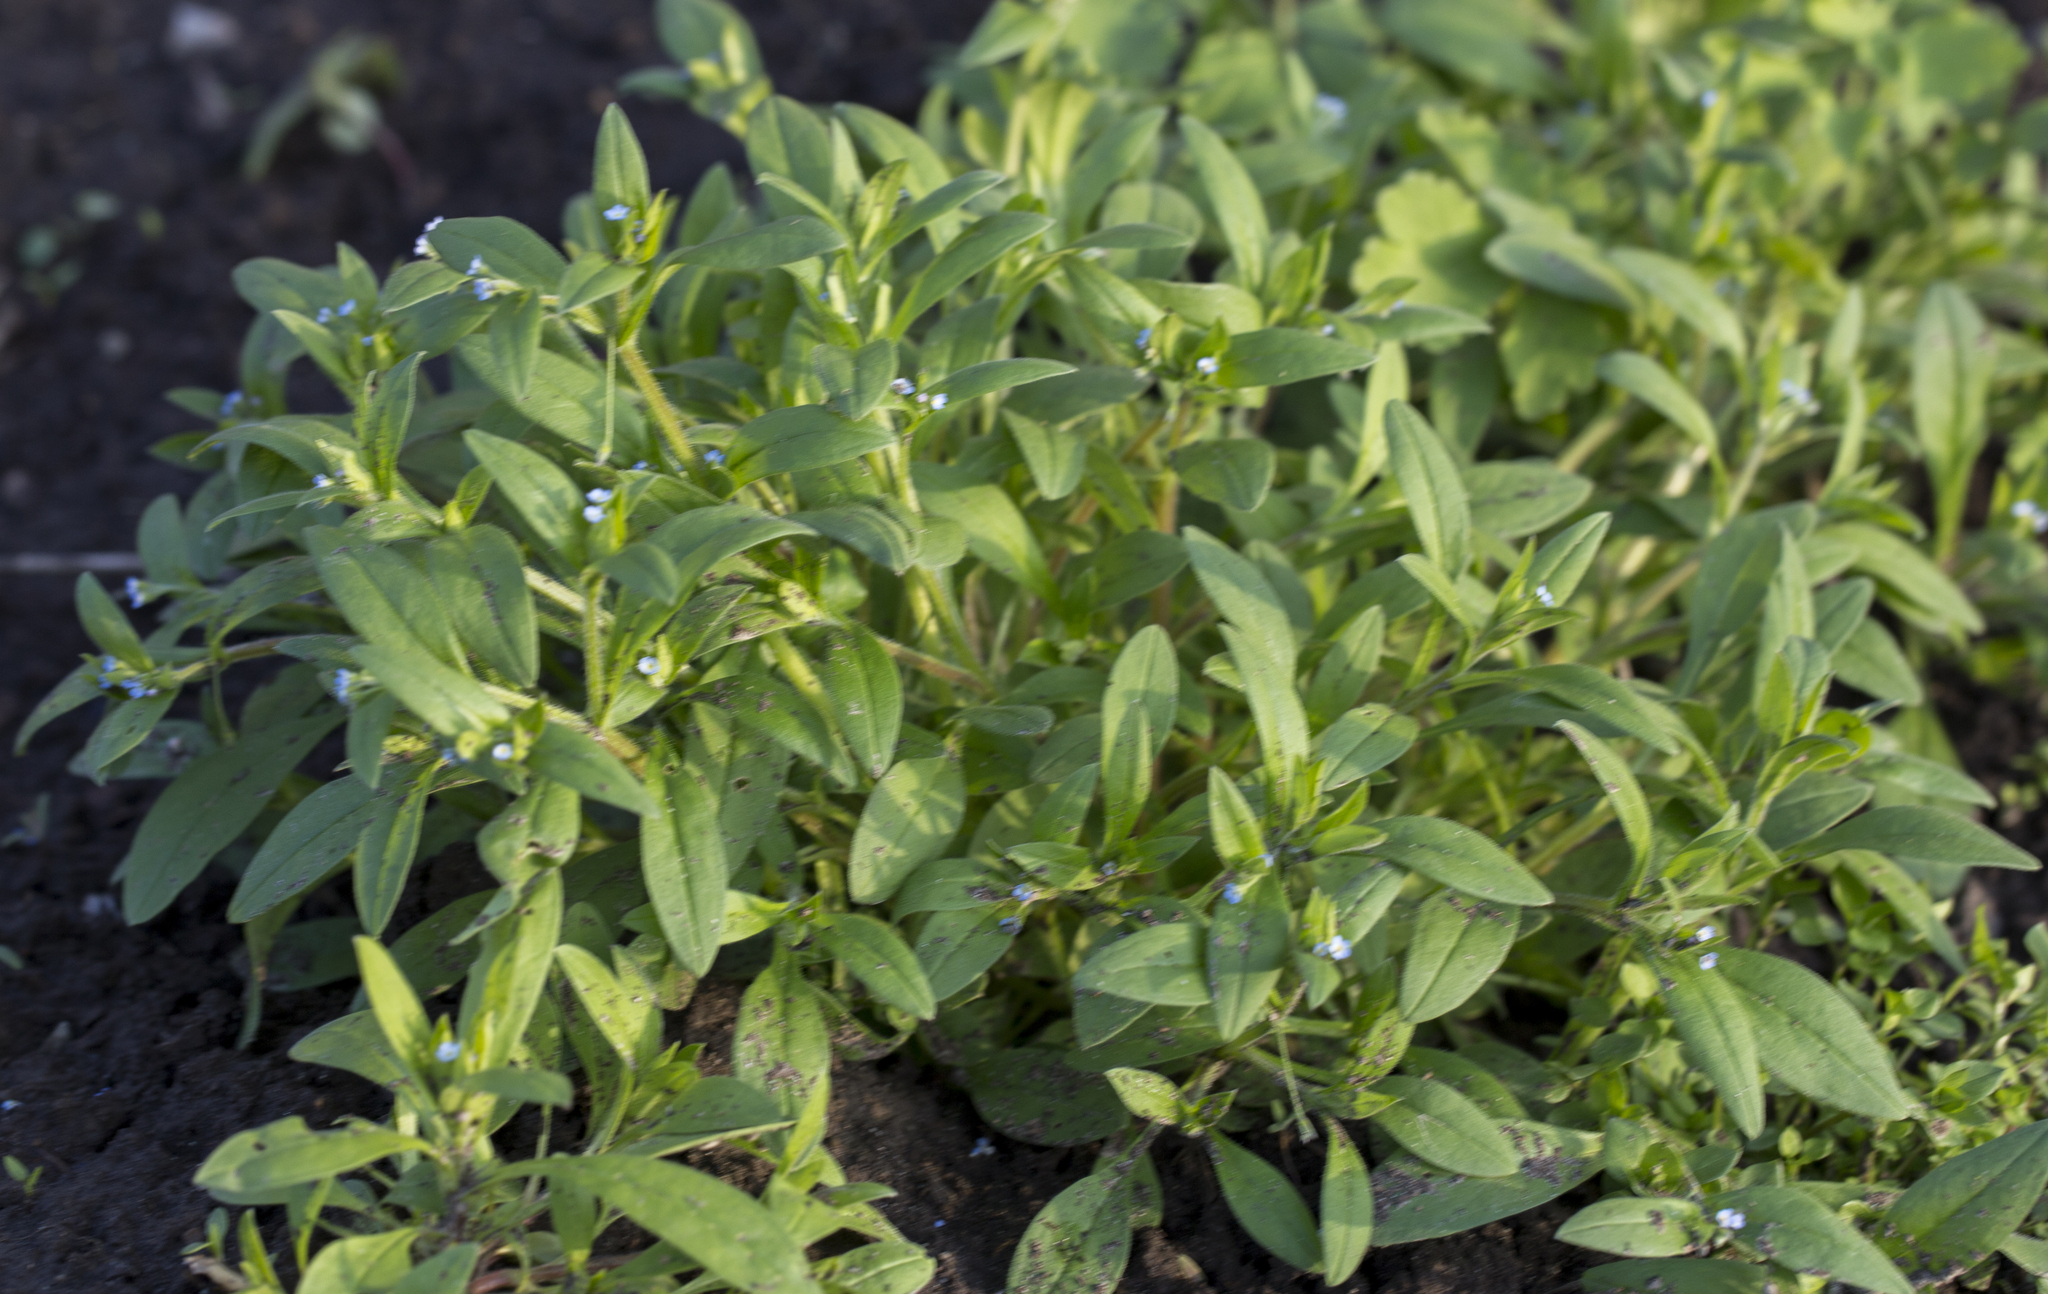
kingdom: Plantae
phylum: Tracheophyta
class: Magnoliopsida
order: Boraginales
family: Boraginaceae
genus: Myosotis
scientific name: Myosotis sparsiflora
